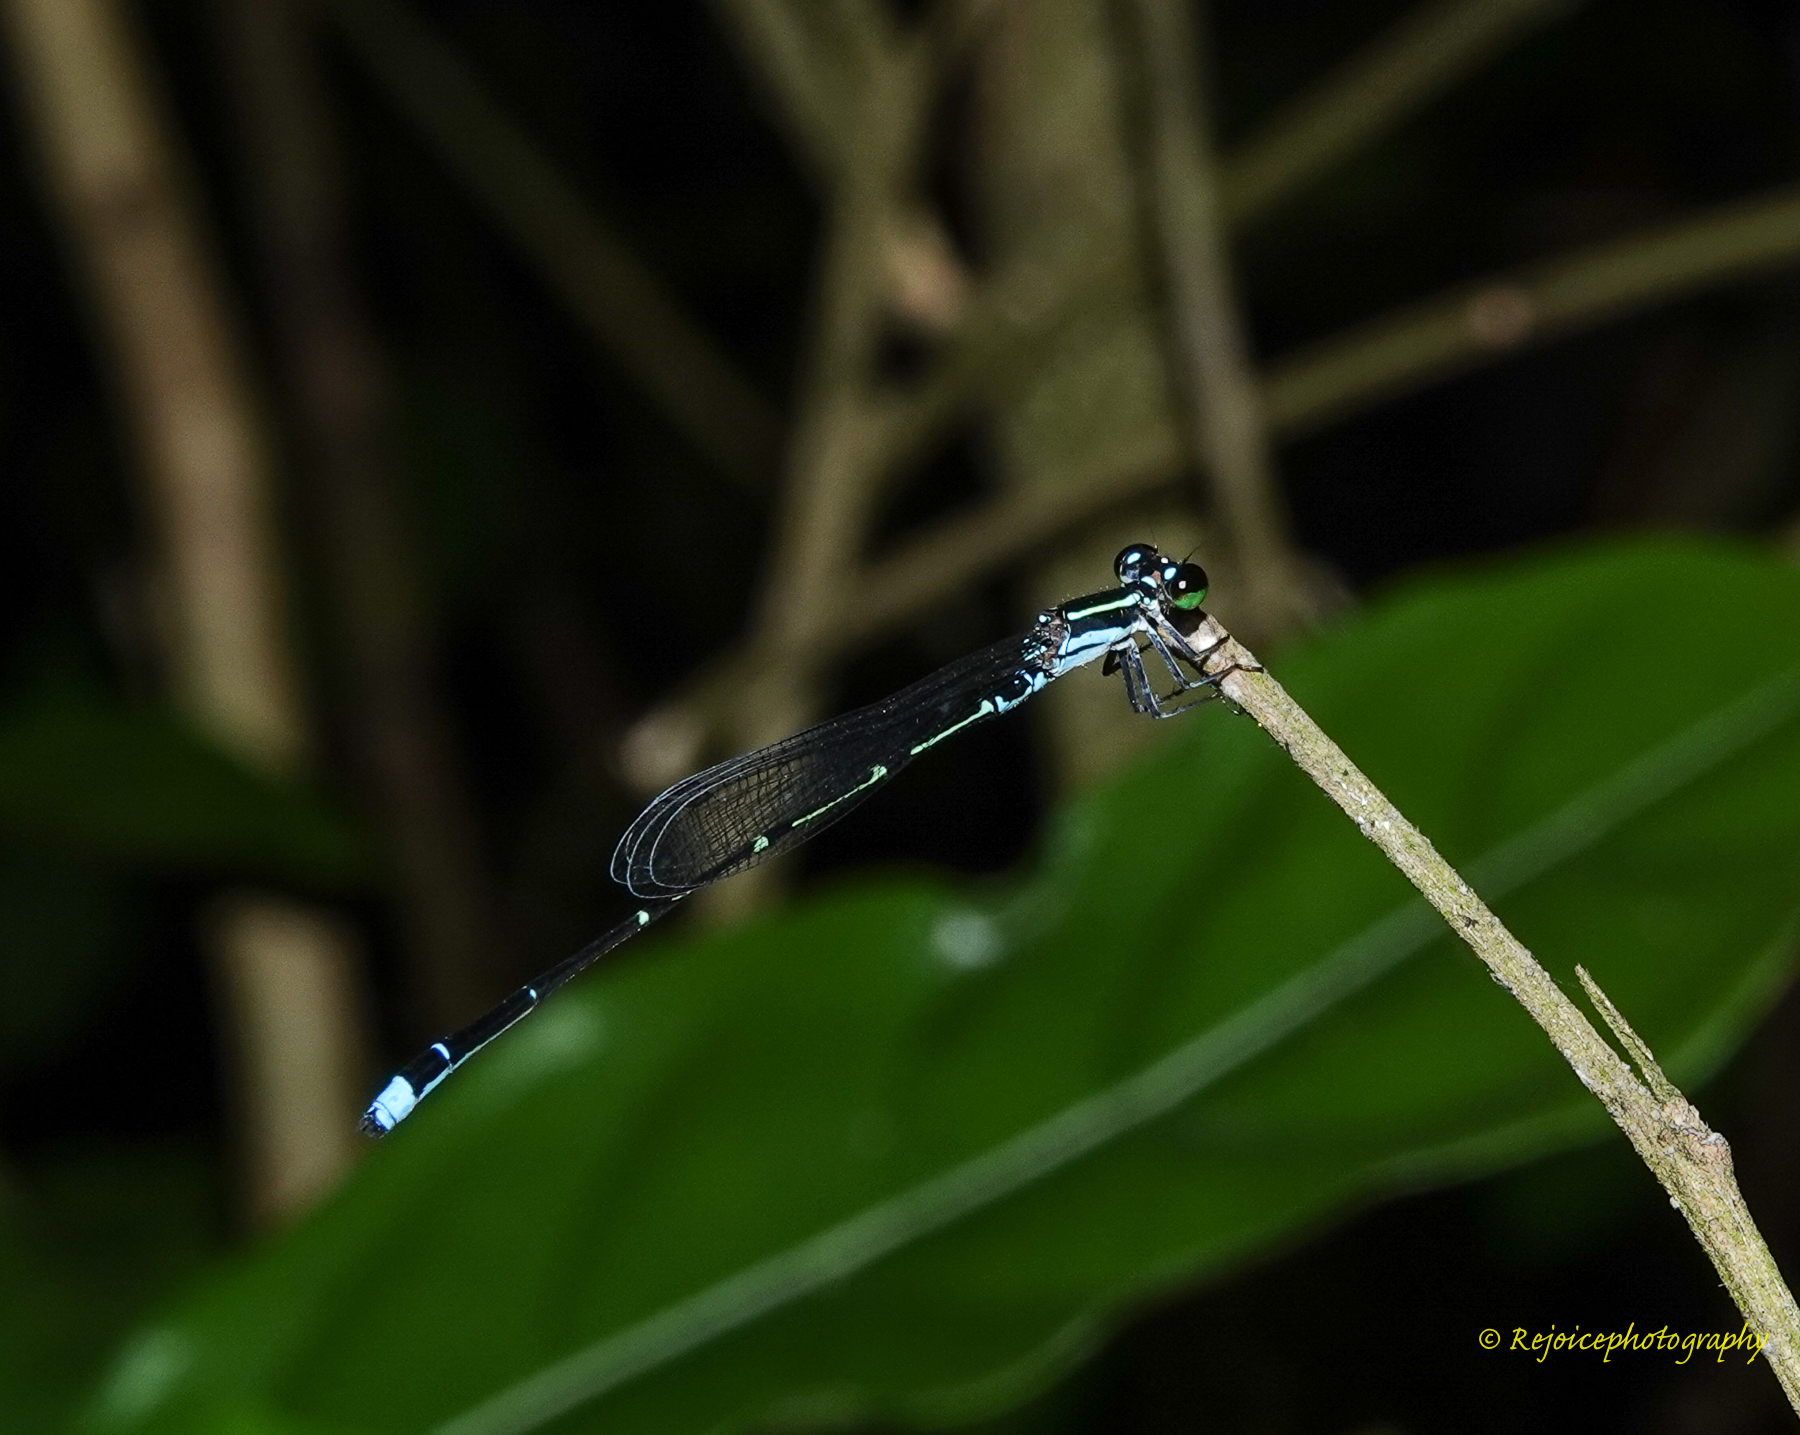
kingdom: Animalia
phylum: Arthropoda
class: Insecta
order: Odonata
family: Coenagrionidae
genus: Mortonagrion
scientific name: Mortonagrion aborense
